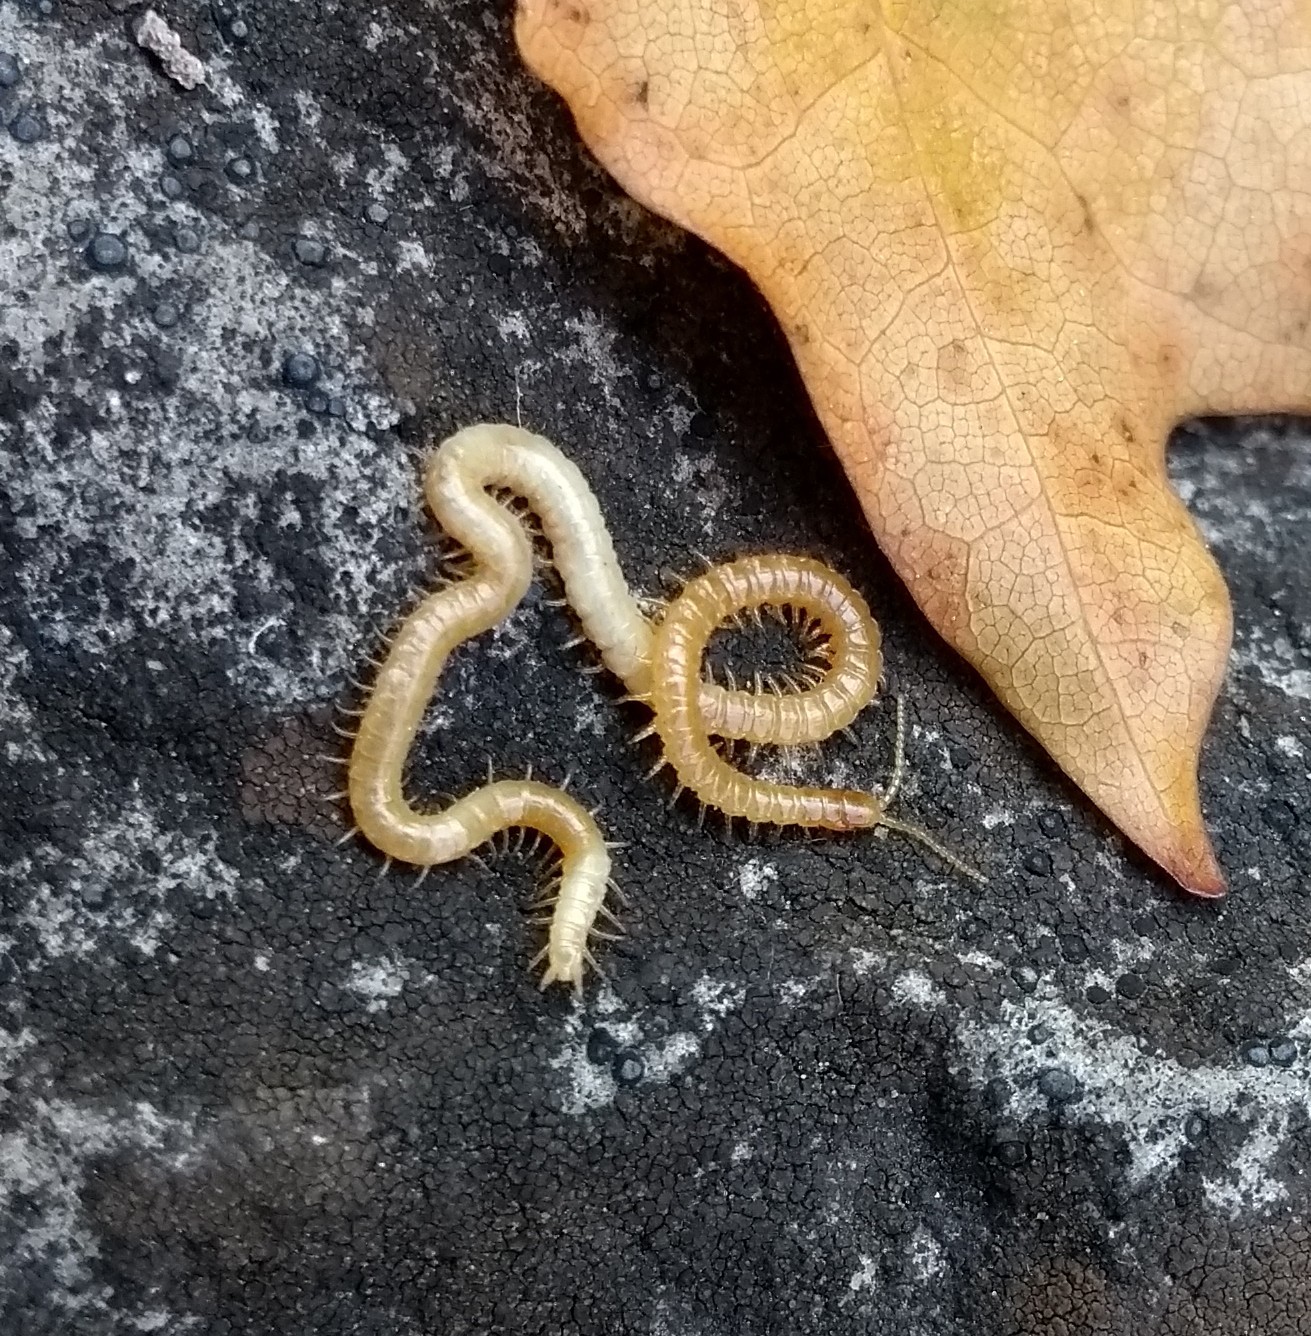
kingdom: Animalia
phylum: Arthropoda
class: Chilopoda
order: Geophilomorpha
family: Himantariidae
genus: Stigmatogaster
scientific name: Stigmatogaster subterranea
